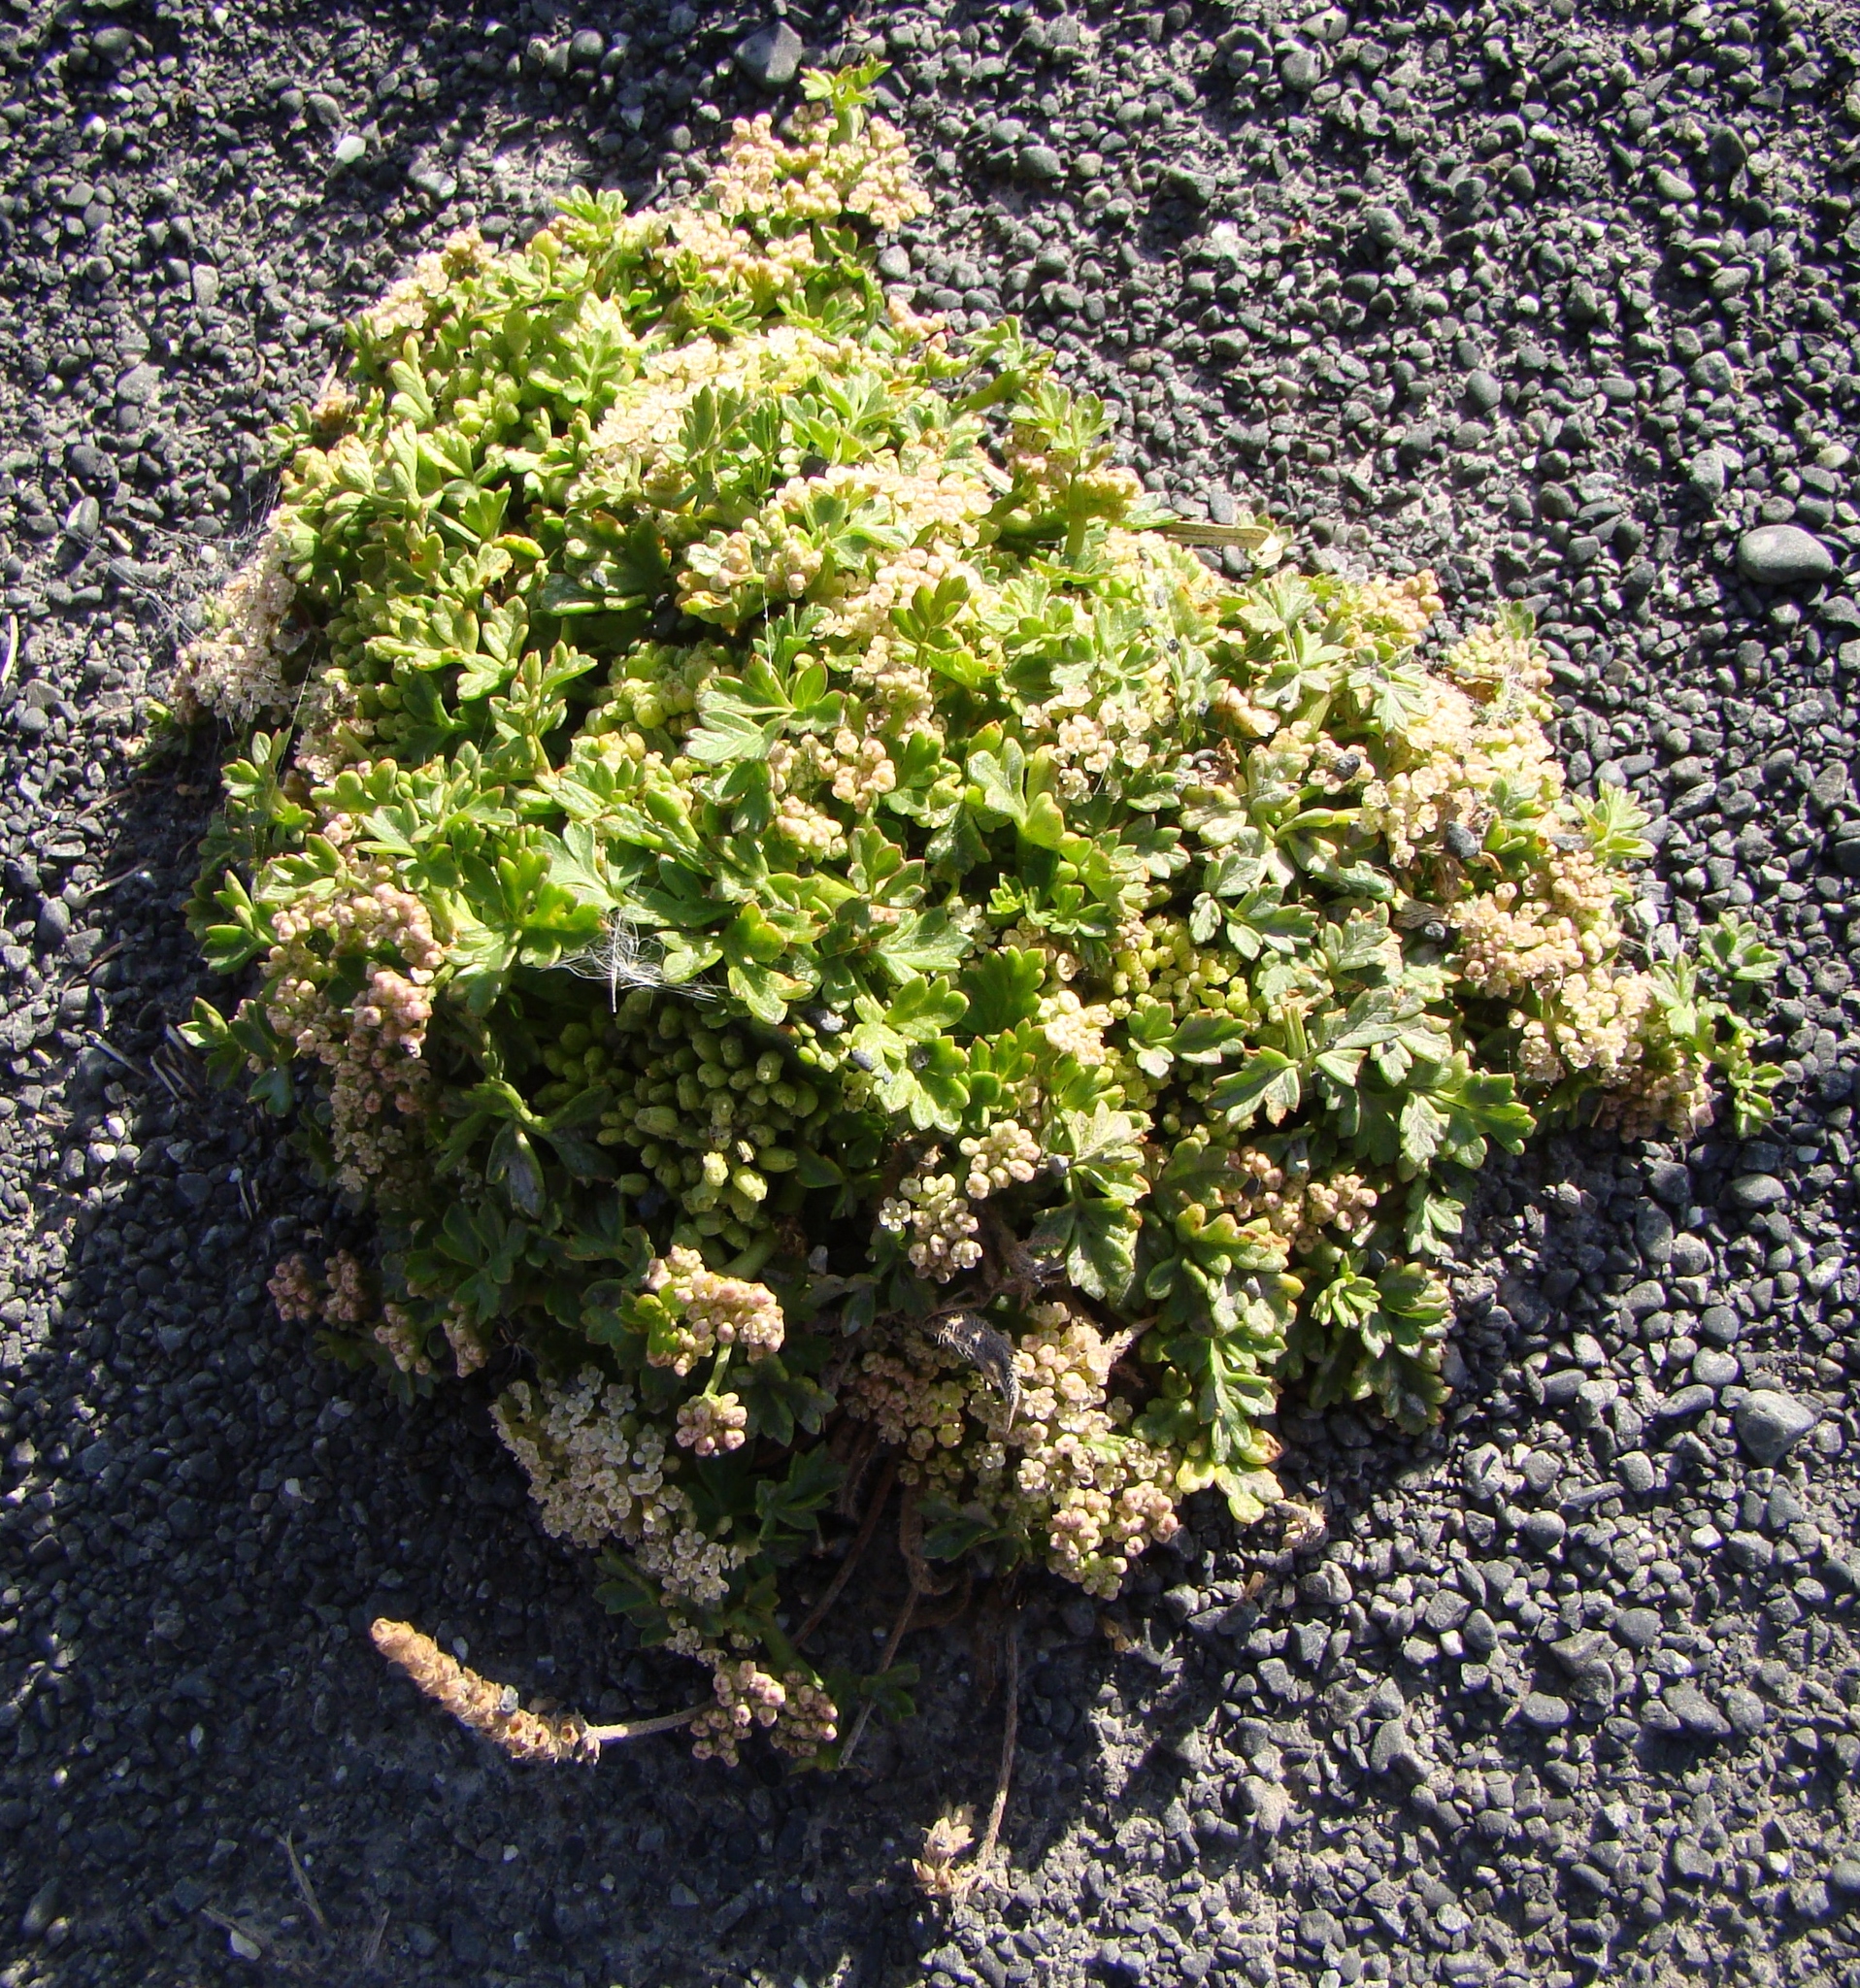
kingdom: Plantae
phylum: Tracheophyta
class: Magnoliopsida
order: Apiales
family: Apiaceae
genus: Apium
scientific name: Apium prostratum
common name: Prostrate marshwort
